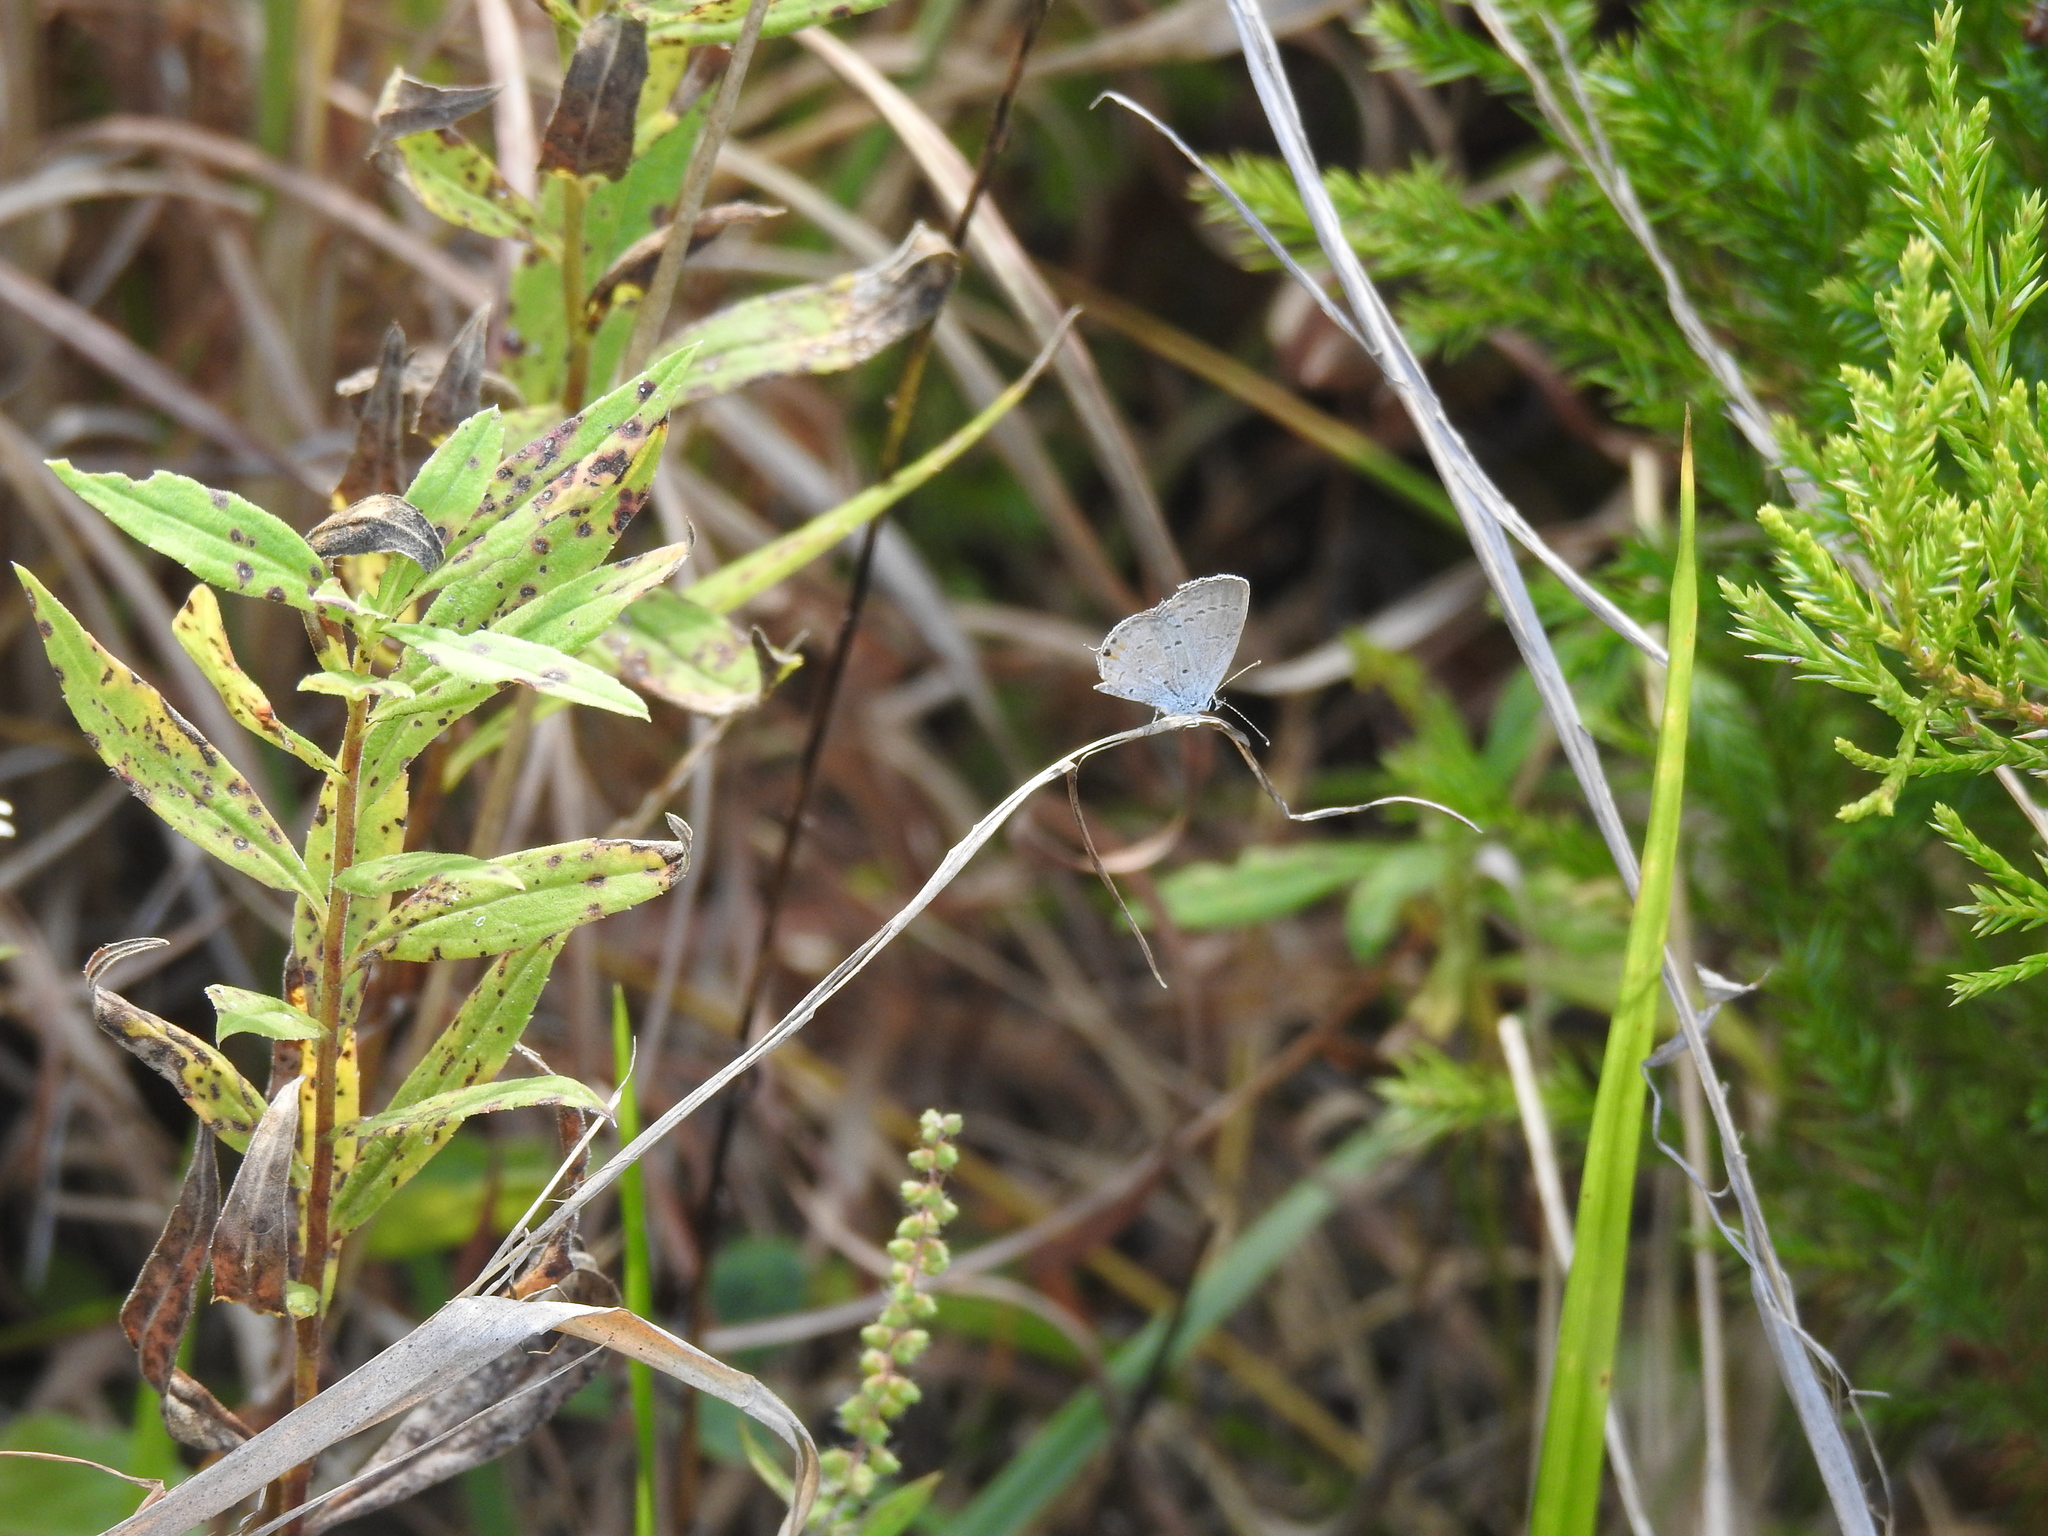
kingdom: Animalia
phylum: Arthropoda
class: Insecta
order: Lepidoptera
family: Lycaenidae
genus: Elkalyce
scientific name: Elkalyce comyntas
